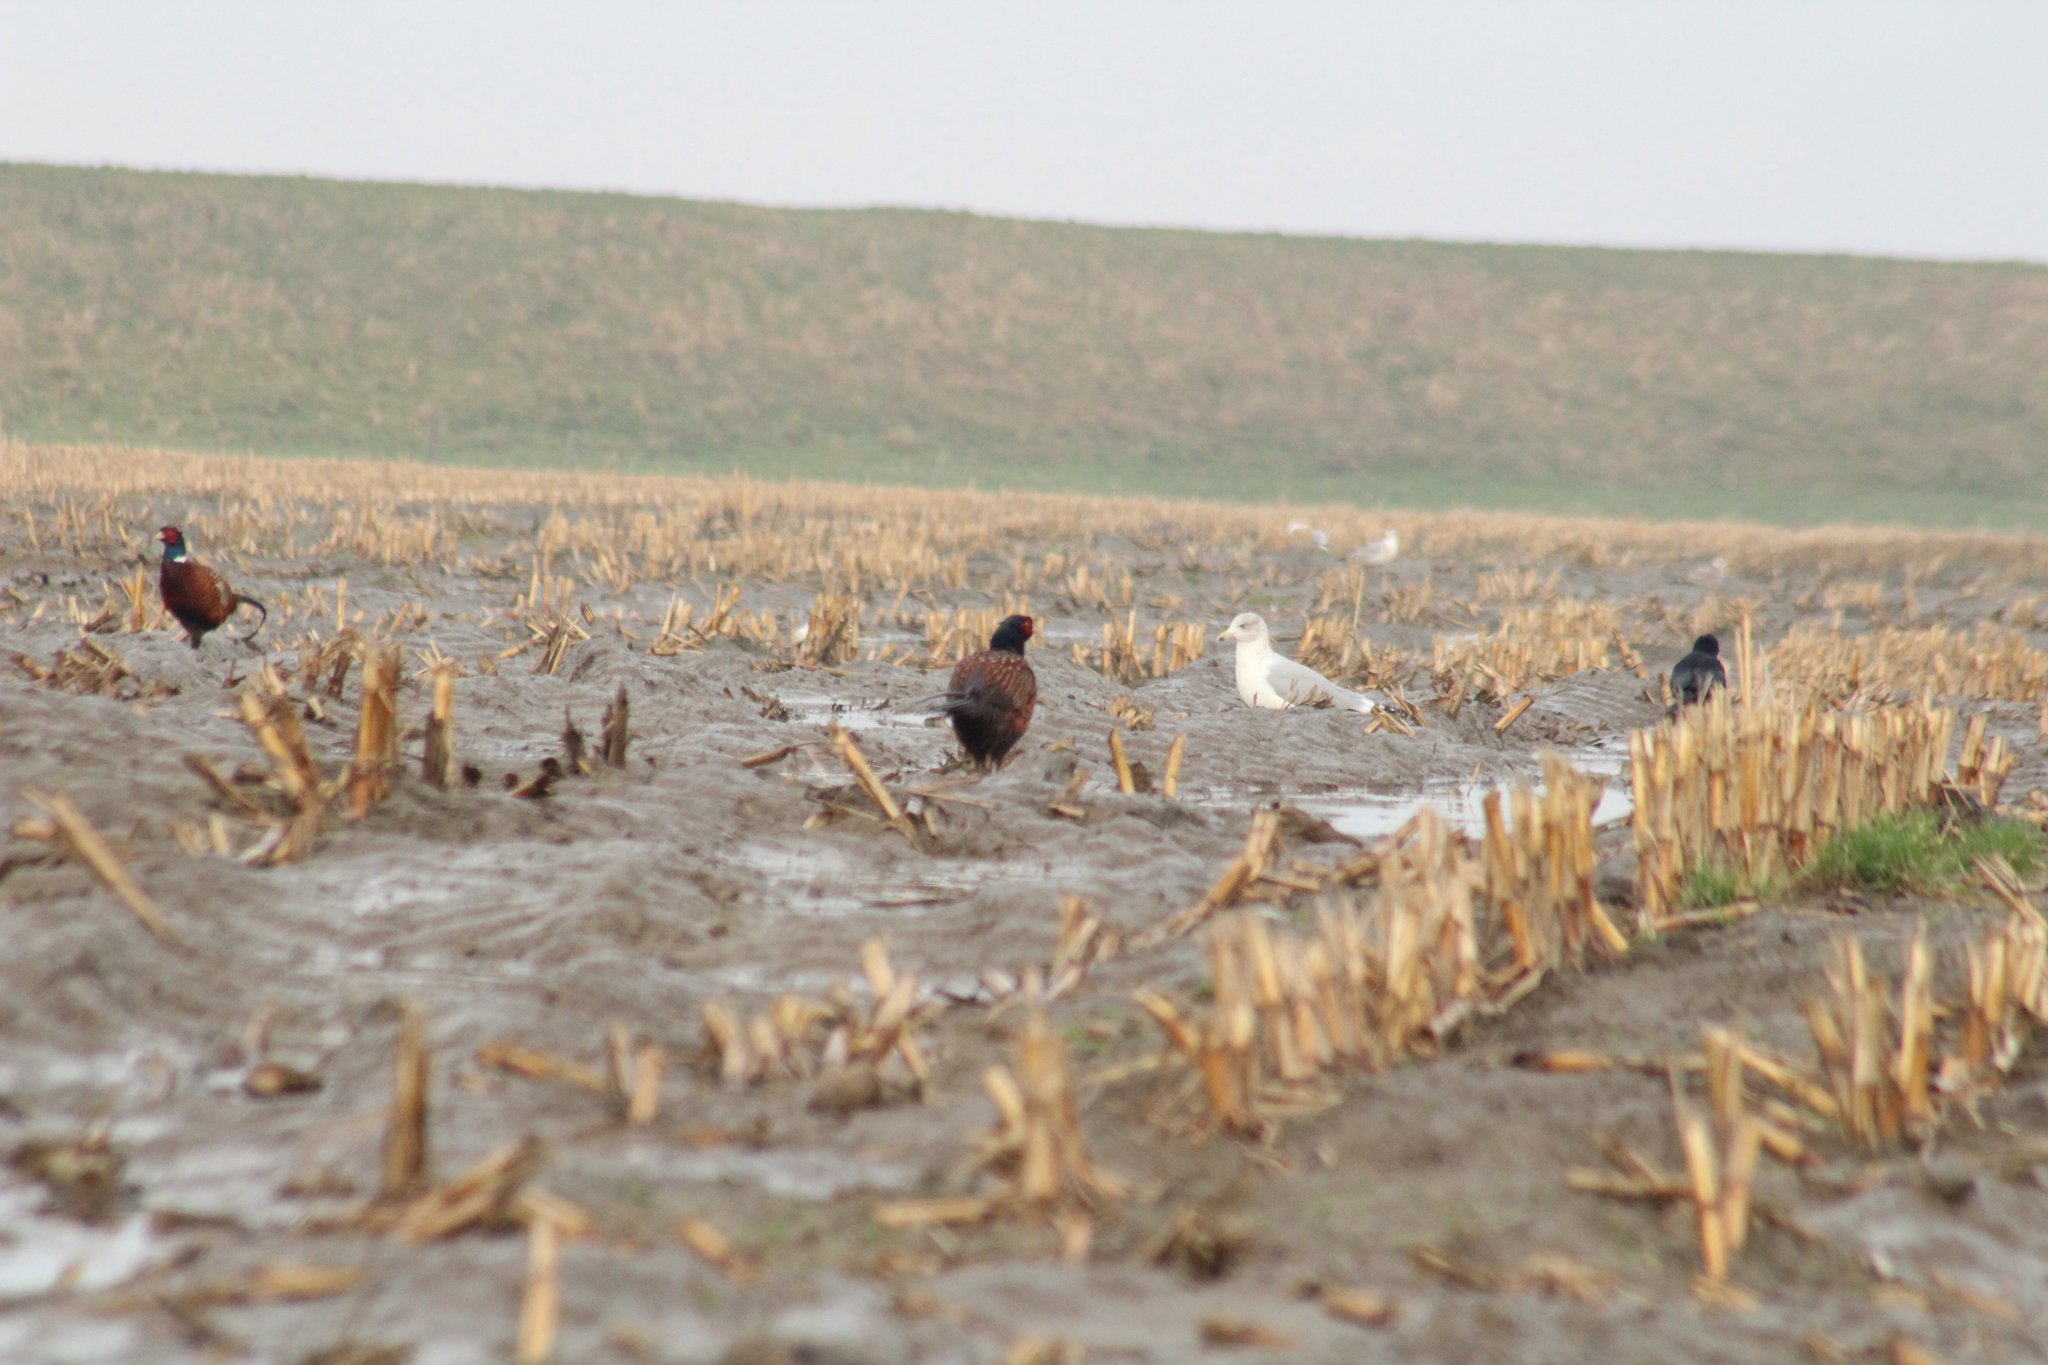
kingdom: Animalia
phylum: Chordata
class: Aves
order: Galliformes
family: Phasianidae
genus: Phasianus
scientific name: Phasianus colchicus
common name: Common pheasant
